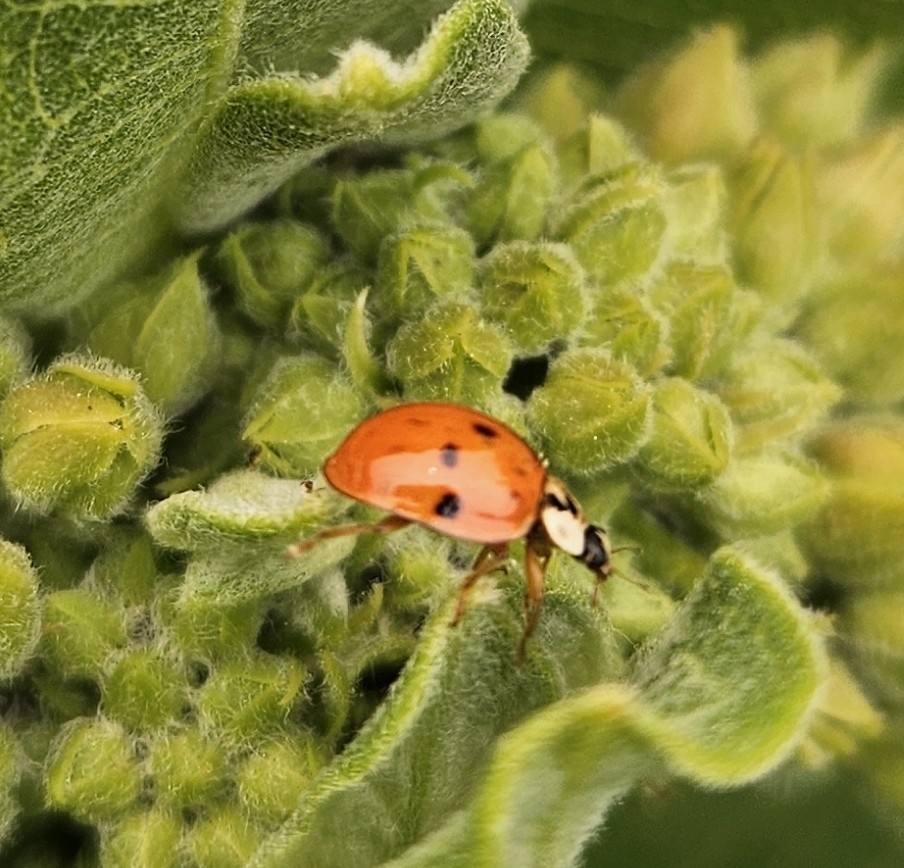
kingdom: Animalia
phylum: Arthropoda
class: Insecta
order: Coleoptera
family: Coccinellidae
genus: Harmonia
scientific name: Harmonia axyridis
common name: Harlequin ladybird
